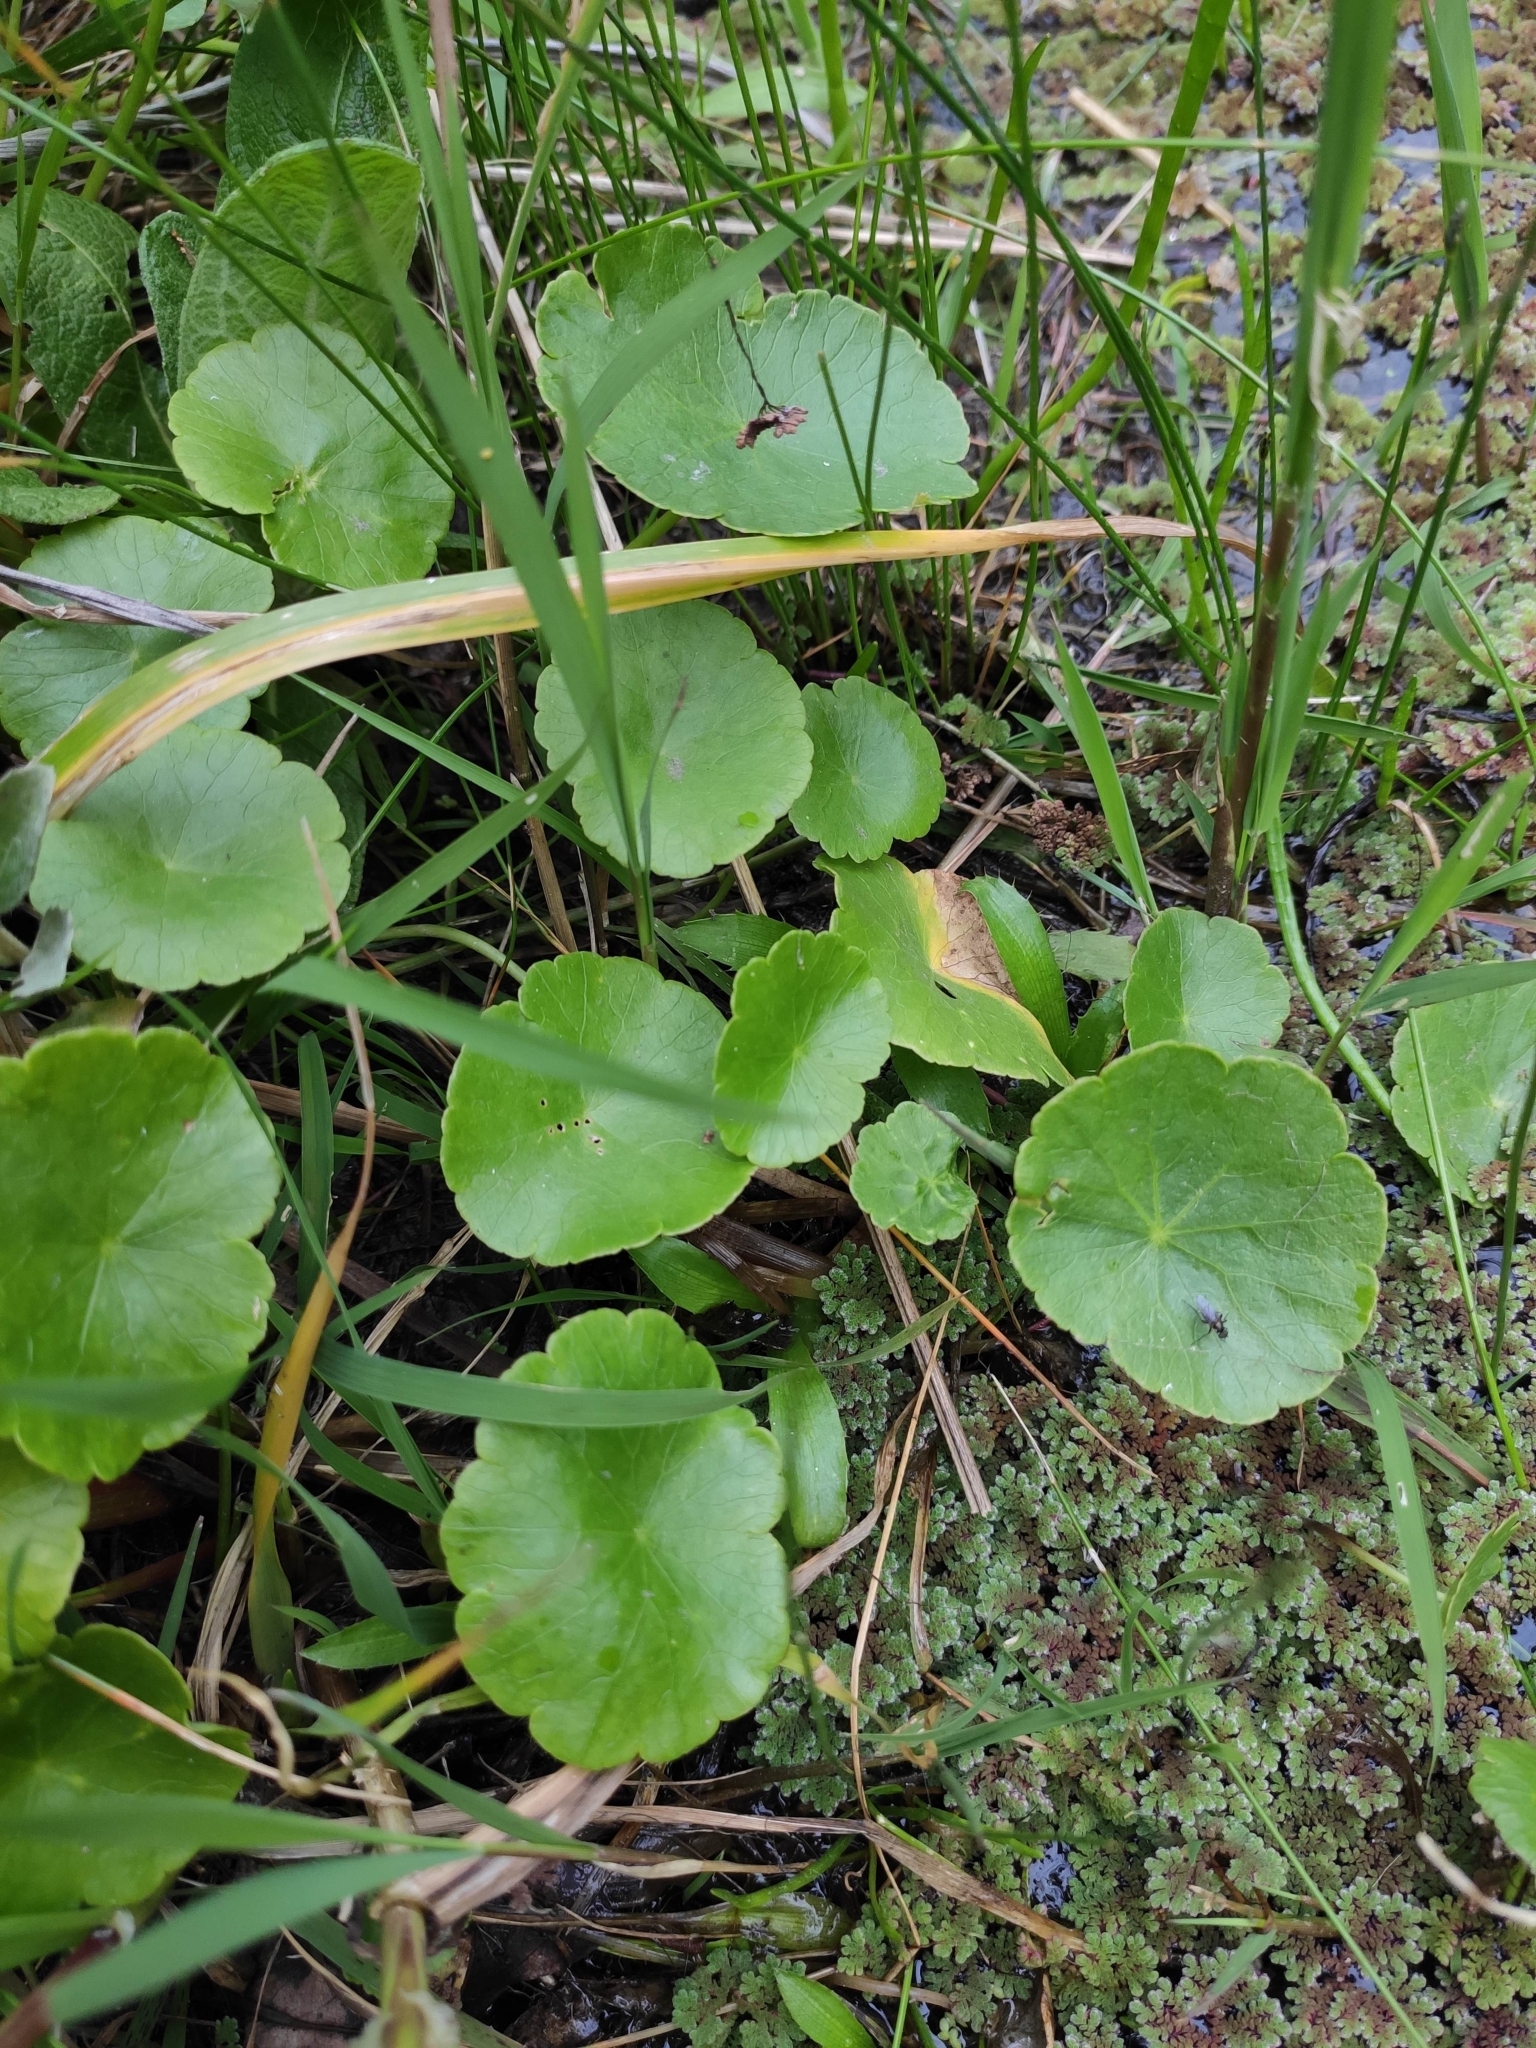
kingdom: Plantae
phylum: Tracheophyta
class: Magnoliopsida
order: Apiales
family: Araliaceae
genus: Hydrocotyle
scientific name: Hydrocotyle bonariensis
